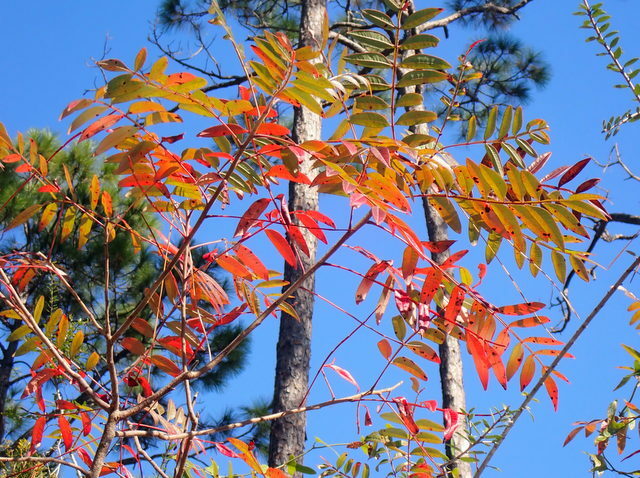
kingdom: Plantae
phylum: Tracheophyta
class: Magnoliopsida
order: Sapindales
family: Anacardiaceae
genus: Rhus
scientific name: Rhus copallina
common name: Shining sumac
